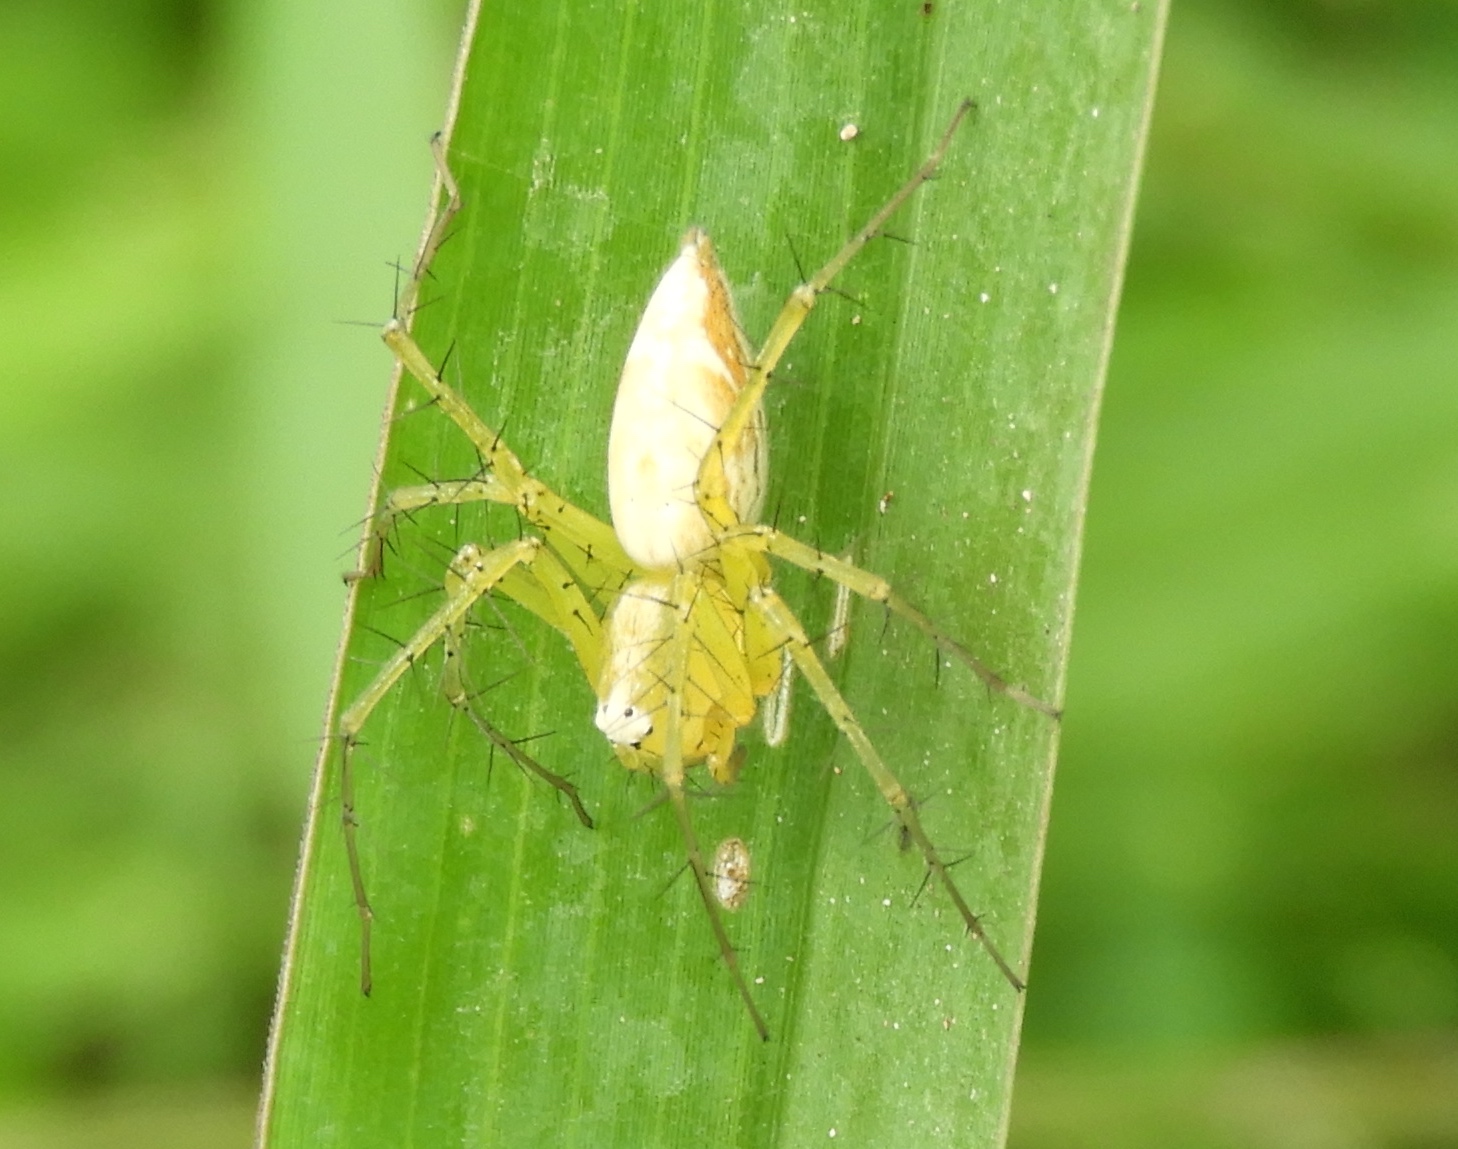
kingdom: Animalia
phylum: Arthropoda
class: Arachnida
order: Araneae
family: Oxyopidae
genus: Oxyopes
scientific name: Oxyopes
